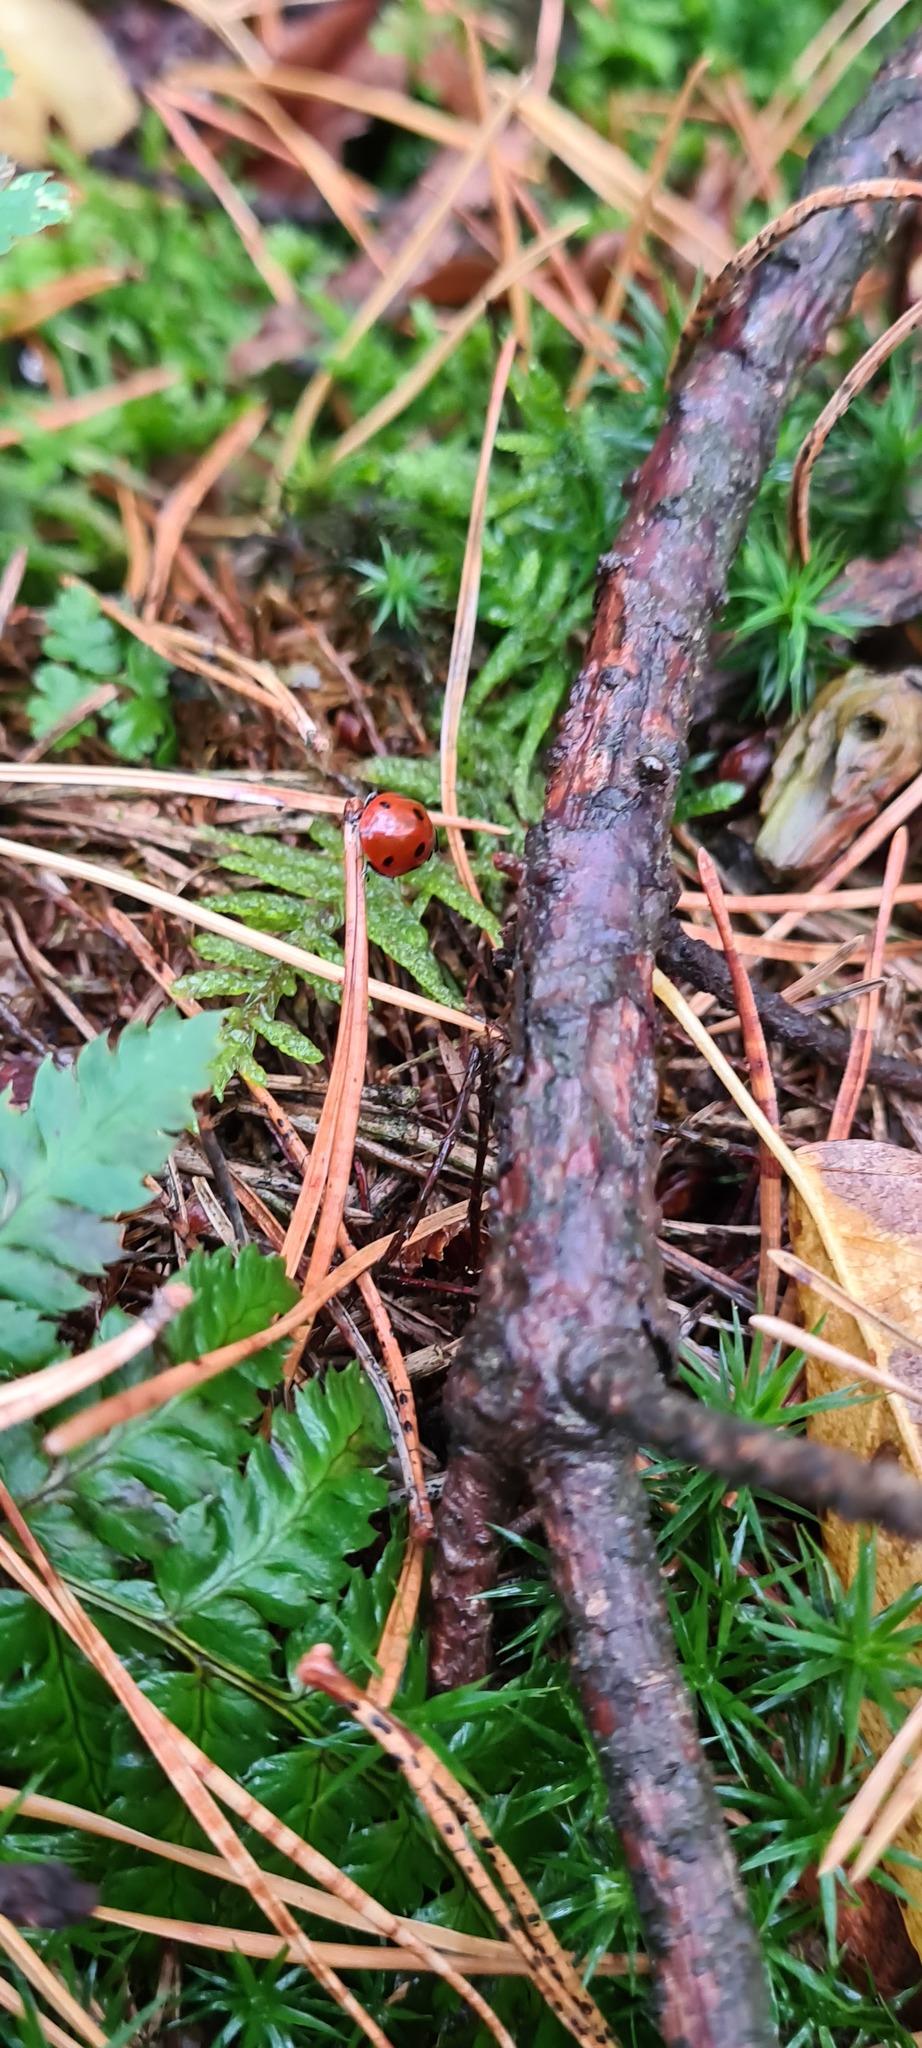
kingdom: Animalia
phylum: Arthropoda
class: Insecta
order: Coleoptera
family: Coccinellidae
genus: Coccinella
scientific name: Coccinella septempunctata
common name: Sevenspotted lady beetle
